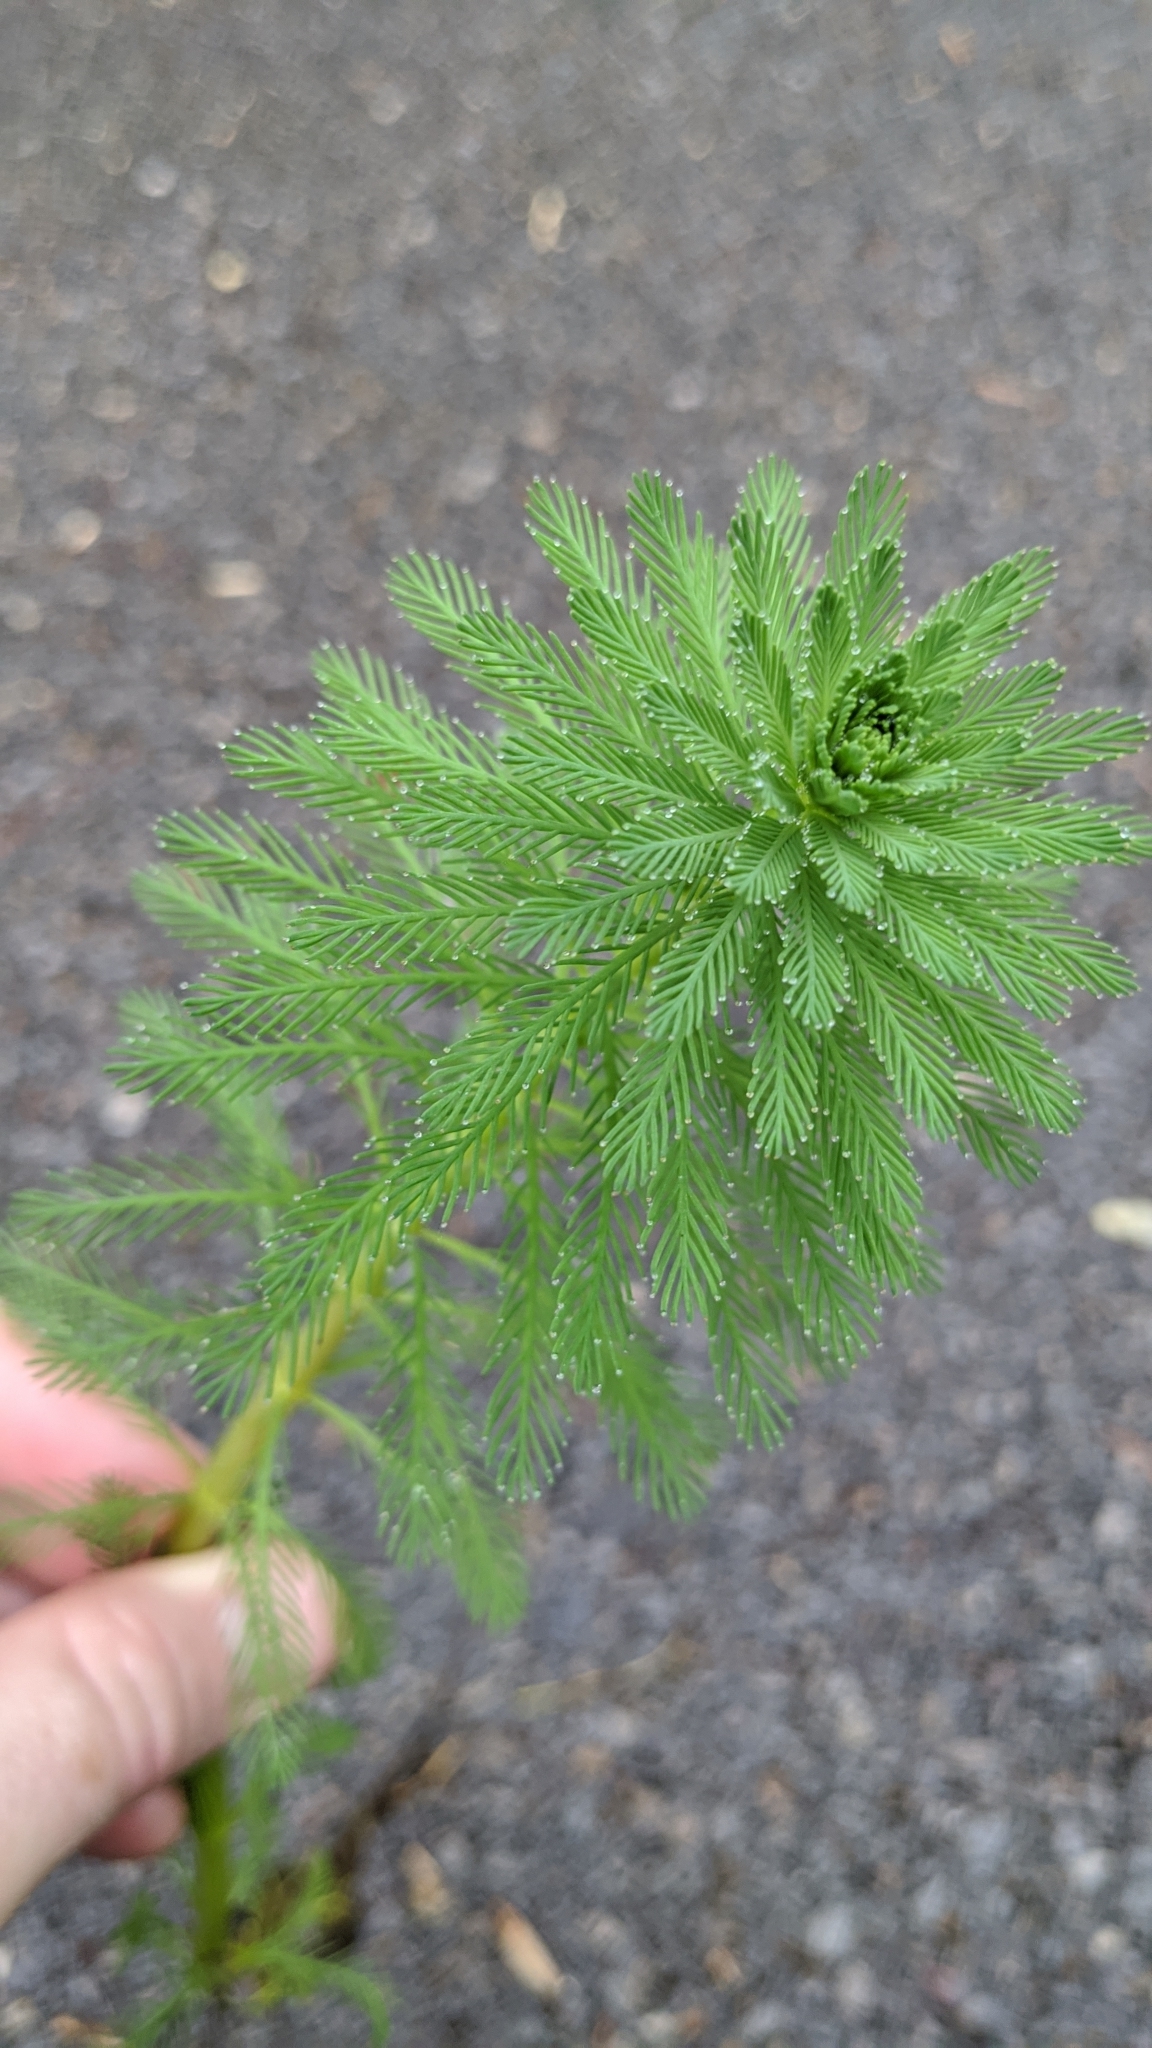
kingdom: Plantae
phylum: Tracheophyta
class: Magnoliopsida
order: Saxifragales
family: Haloragaceae
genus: Myriophyllum
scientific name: Myriophyllum aquaticum
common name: Parrot's feather
